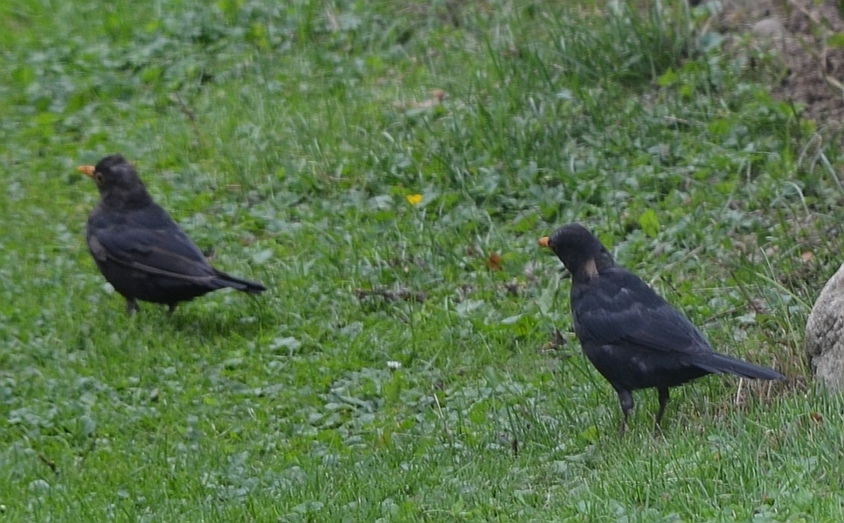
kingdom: Animalia
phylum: Chordata
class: Aves
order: Passeriformes
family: Turdidae
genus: Turdus
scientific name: Turdus merula
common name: Common blackbird
